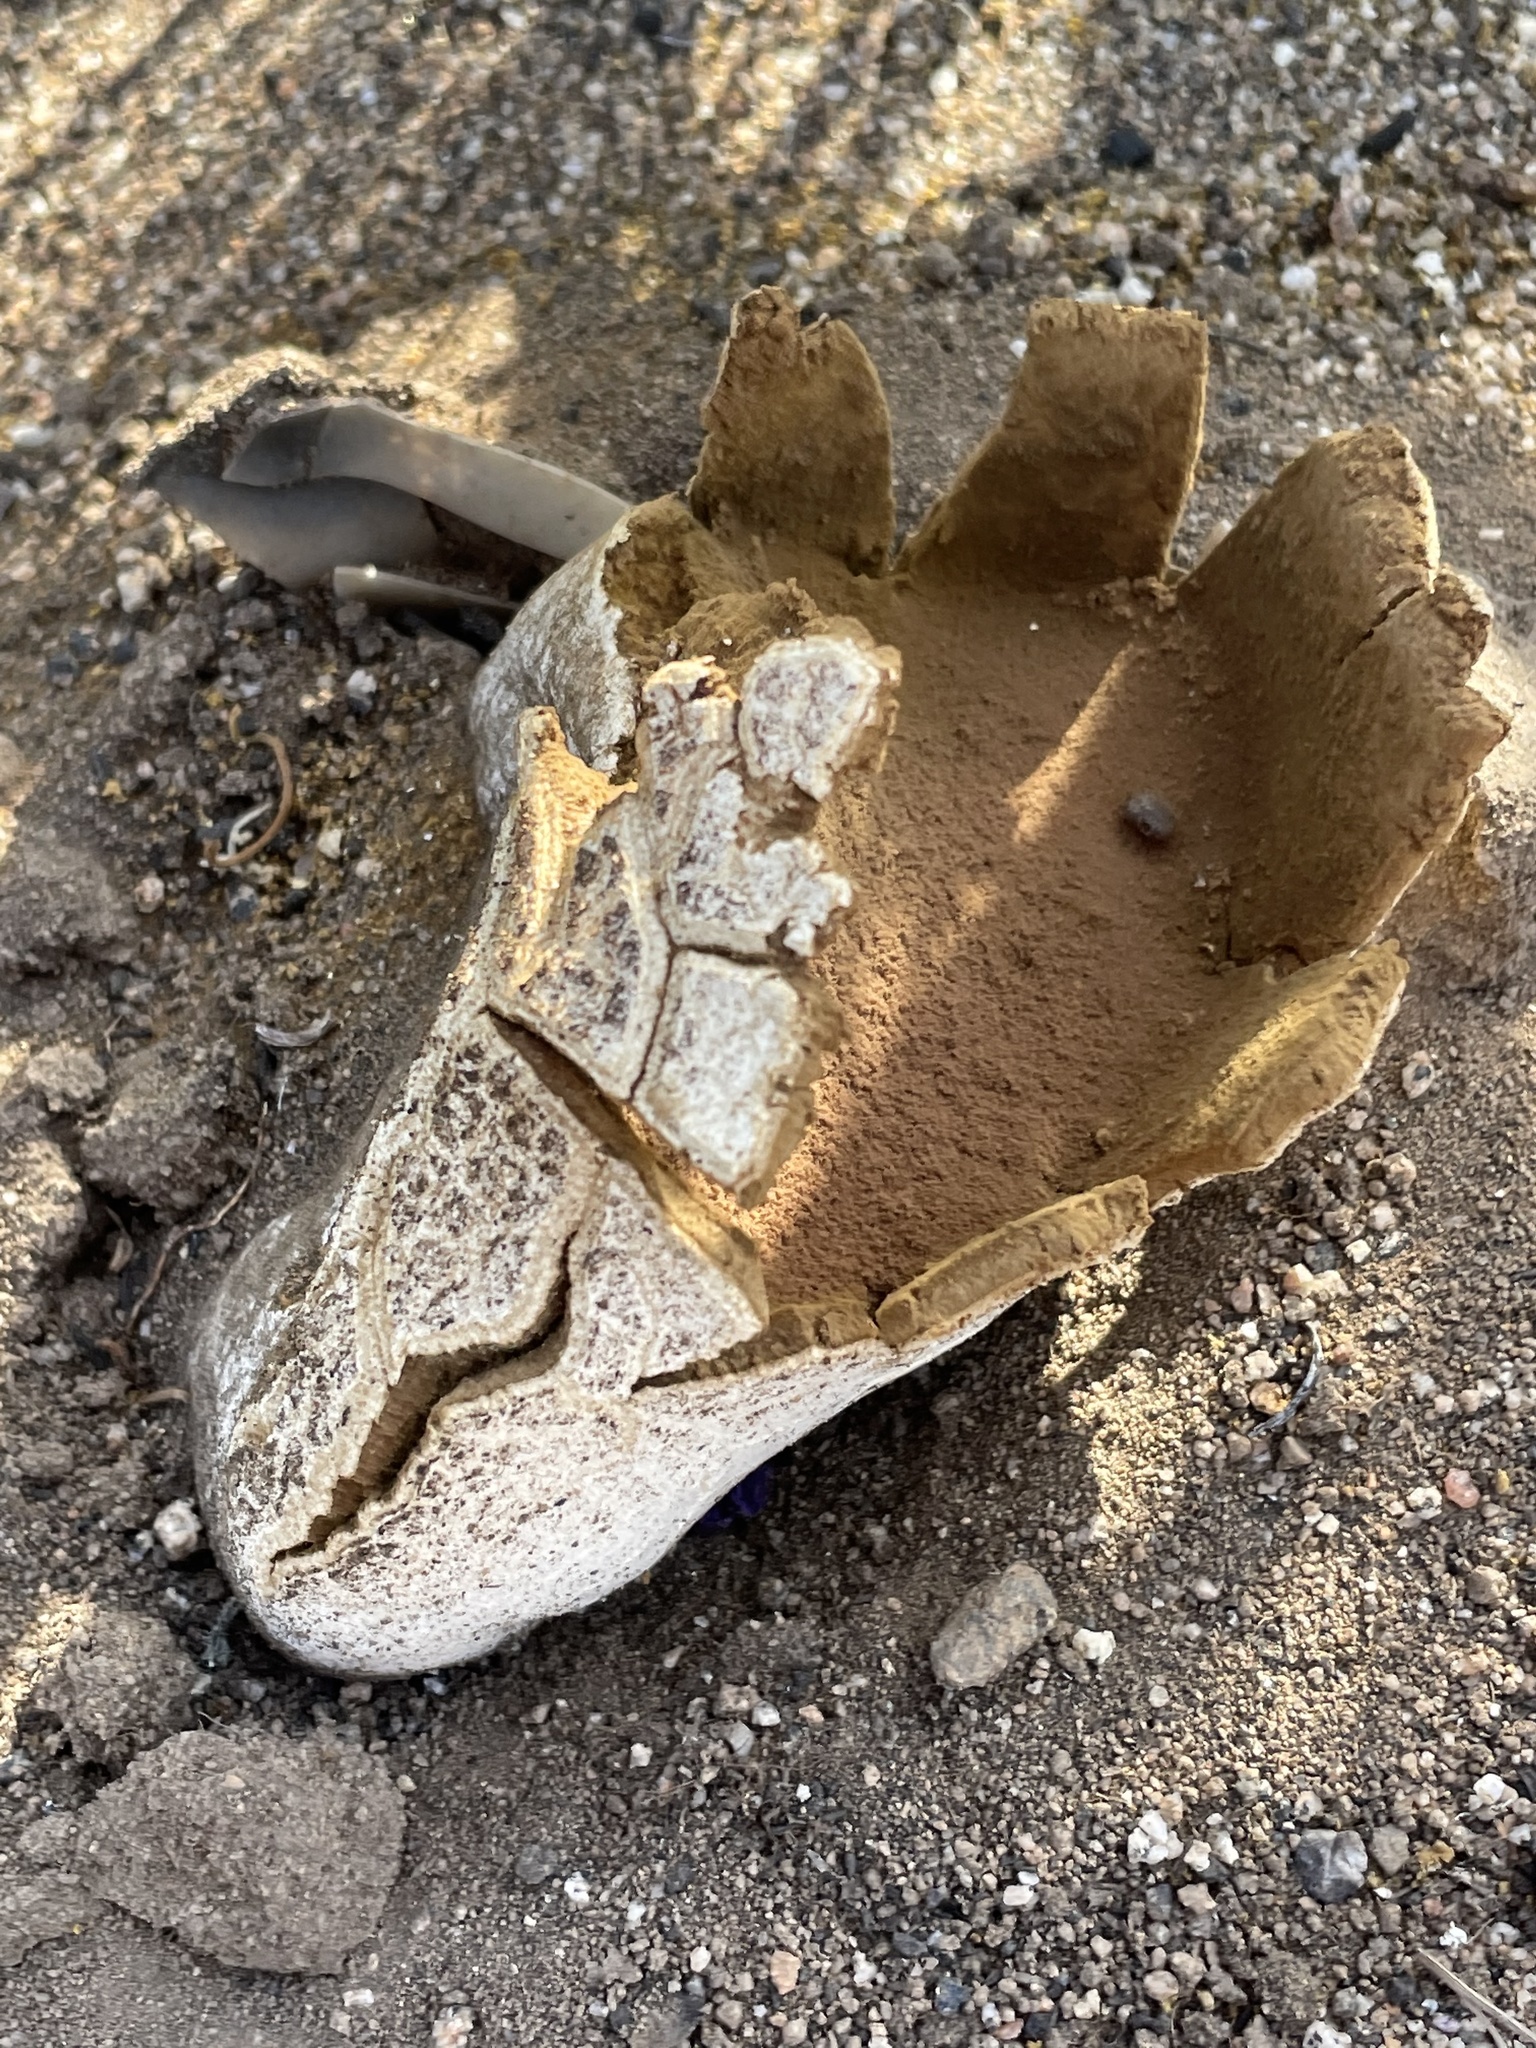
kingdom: Fungi
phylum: Basidiomycota
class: Agaricomycetes
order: Agaricales
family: Lycoperdaceae
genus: Langermannia
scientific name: Langermannia pachyderma
